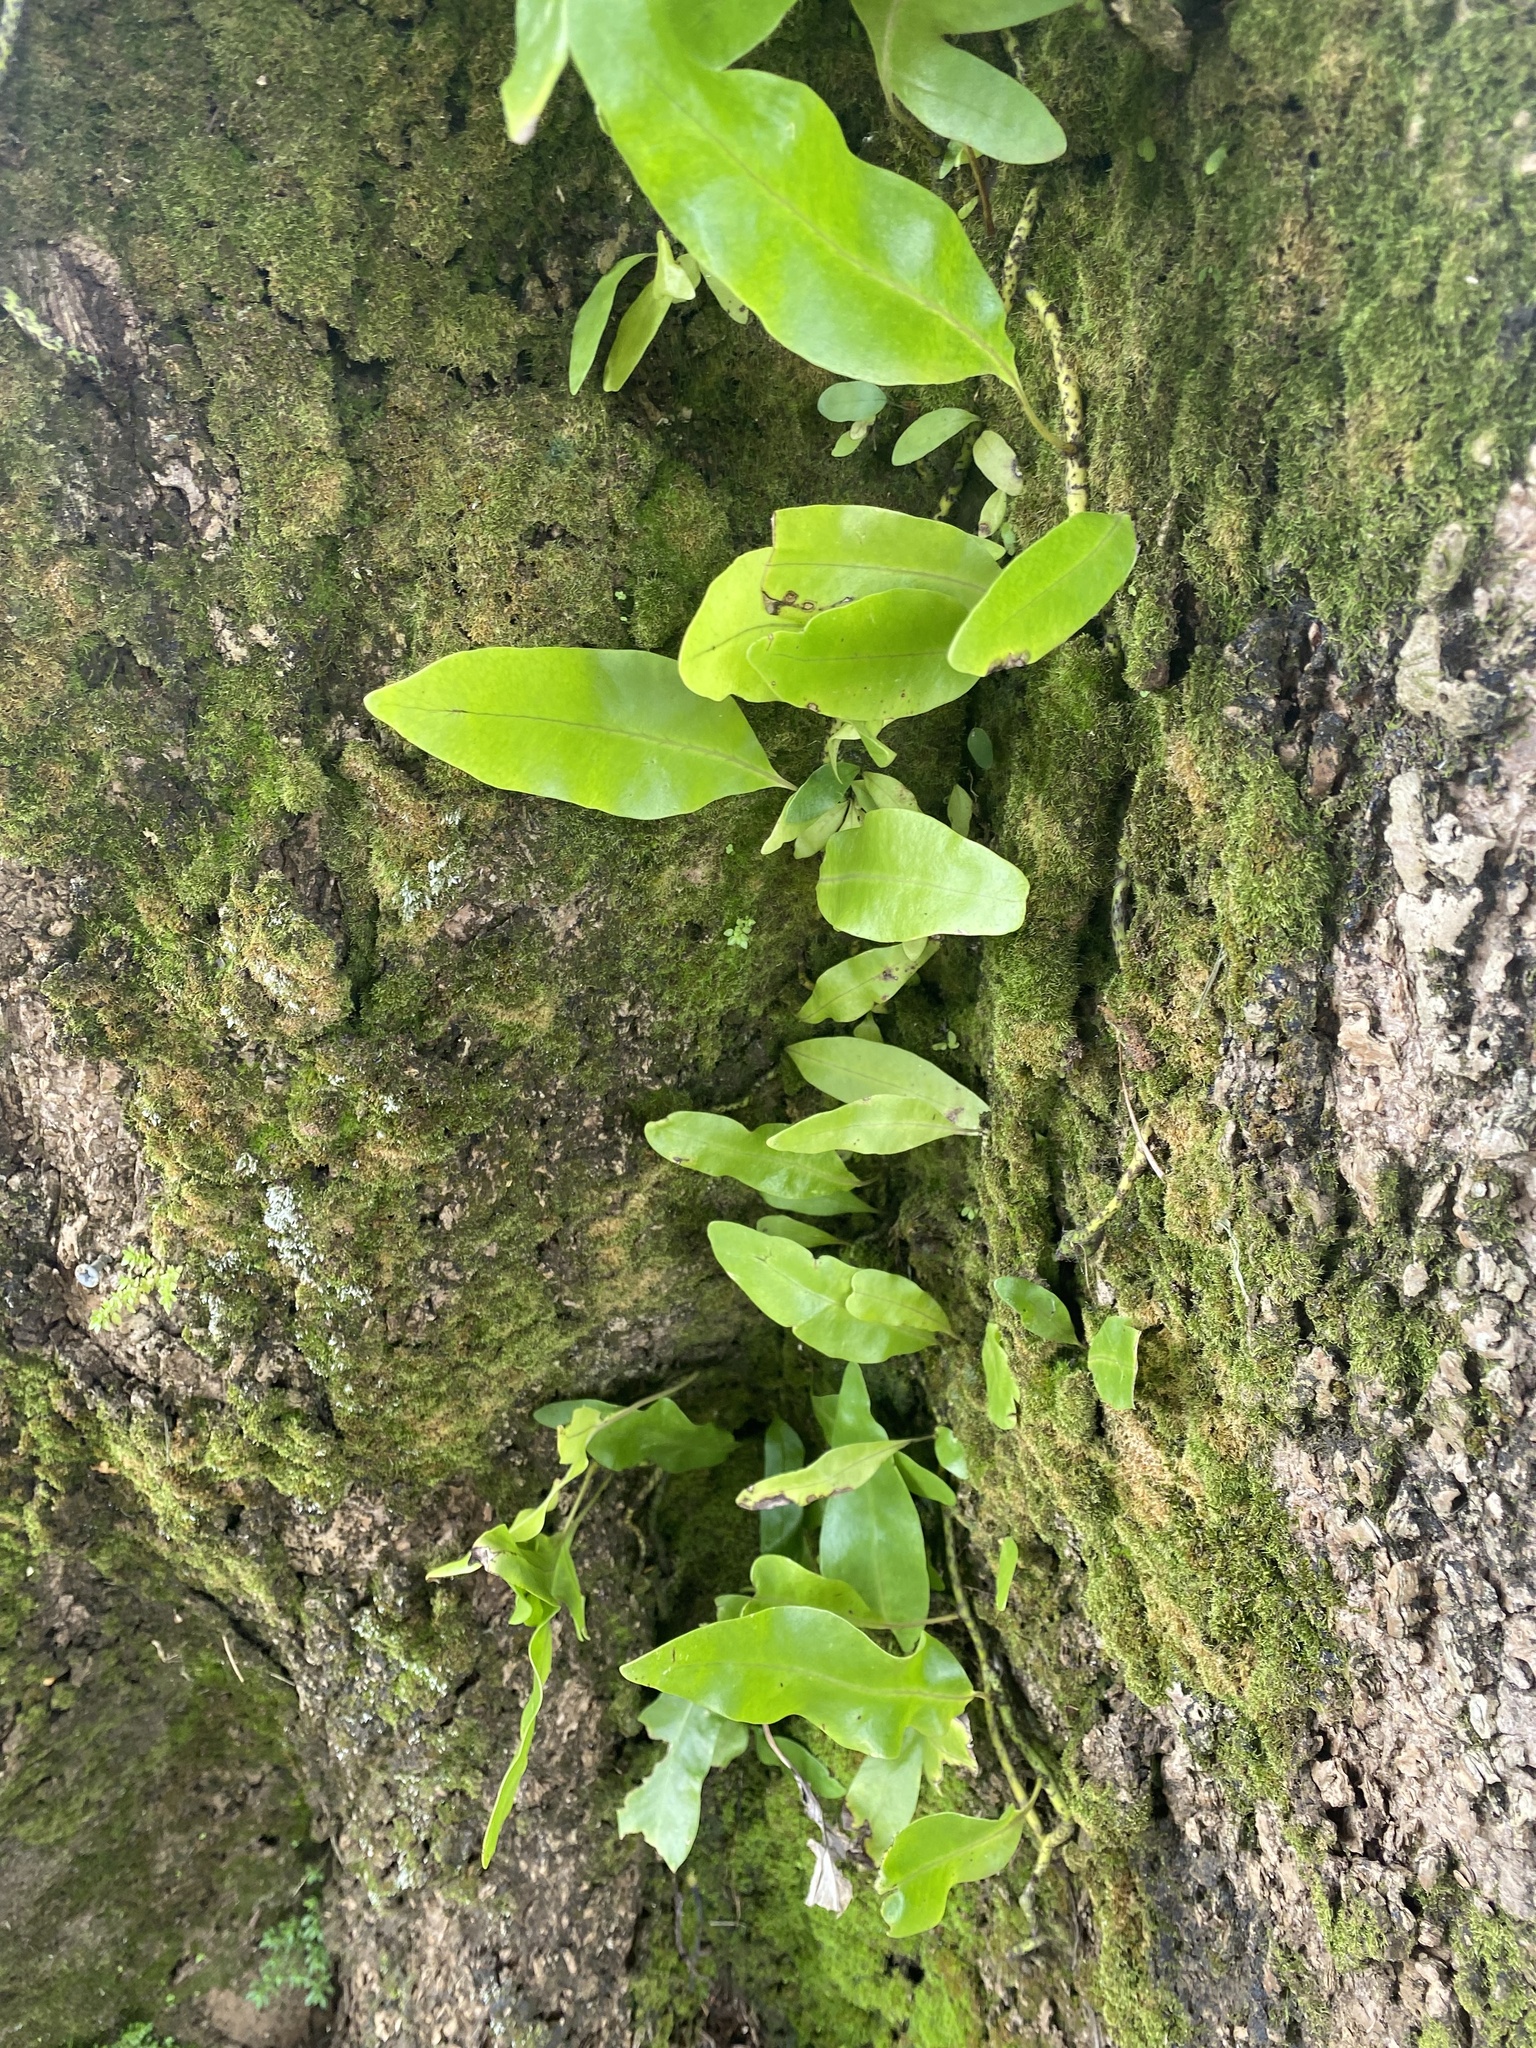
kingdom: Plantae
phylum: Tracheophyta
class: Polypodiopsida
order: Polypodiales
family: Polypodiaceae
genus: Microsorum
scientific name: Microsorum grossum
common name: Musk fern
